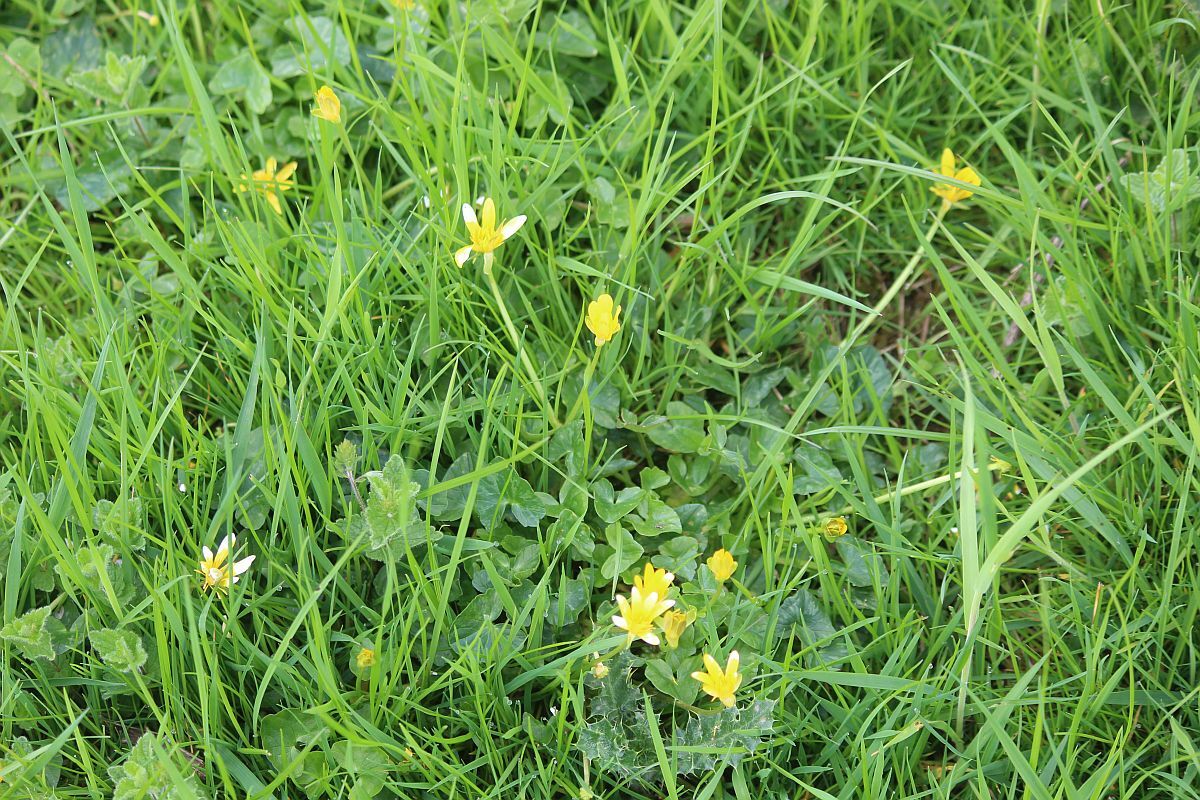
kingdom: Plantae
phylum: Tracheophyta
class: Magnoliopsida
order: Ranunculales
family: Ranunculaceae
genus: Ficaria
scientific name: Ficaria verna
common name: Lesser celandine
